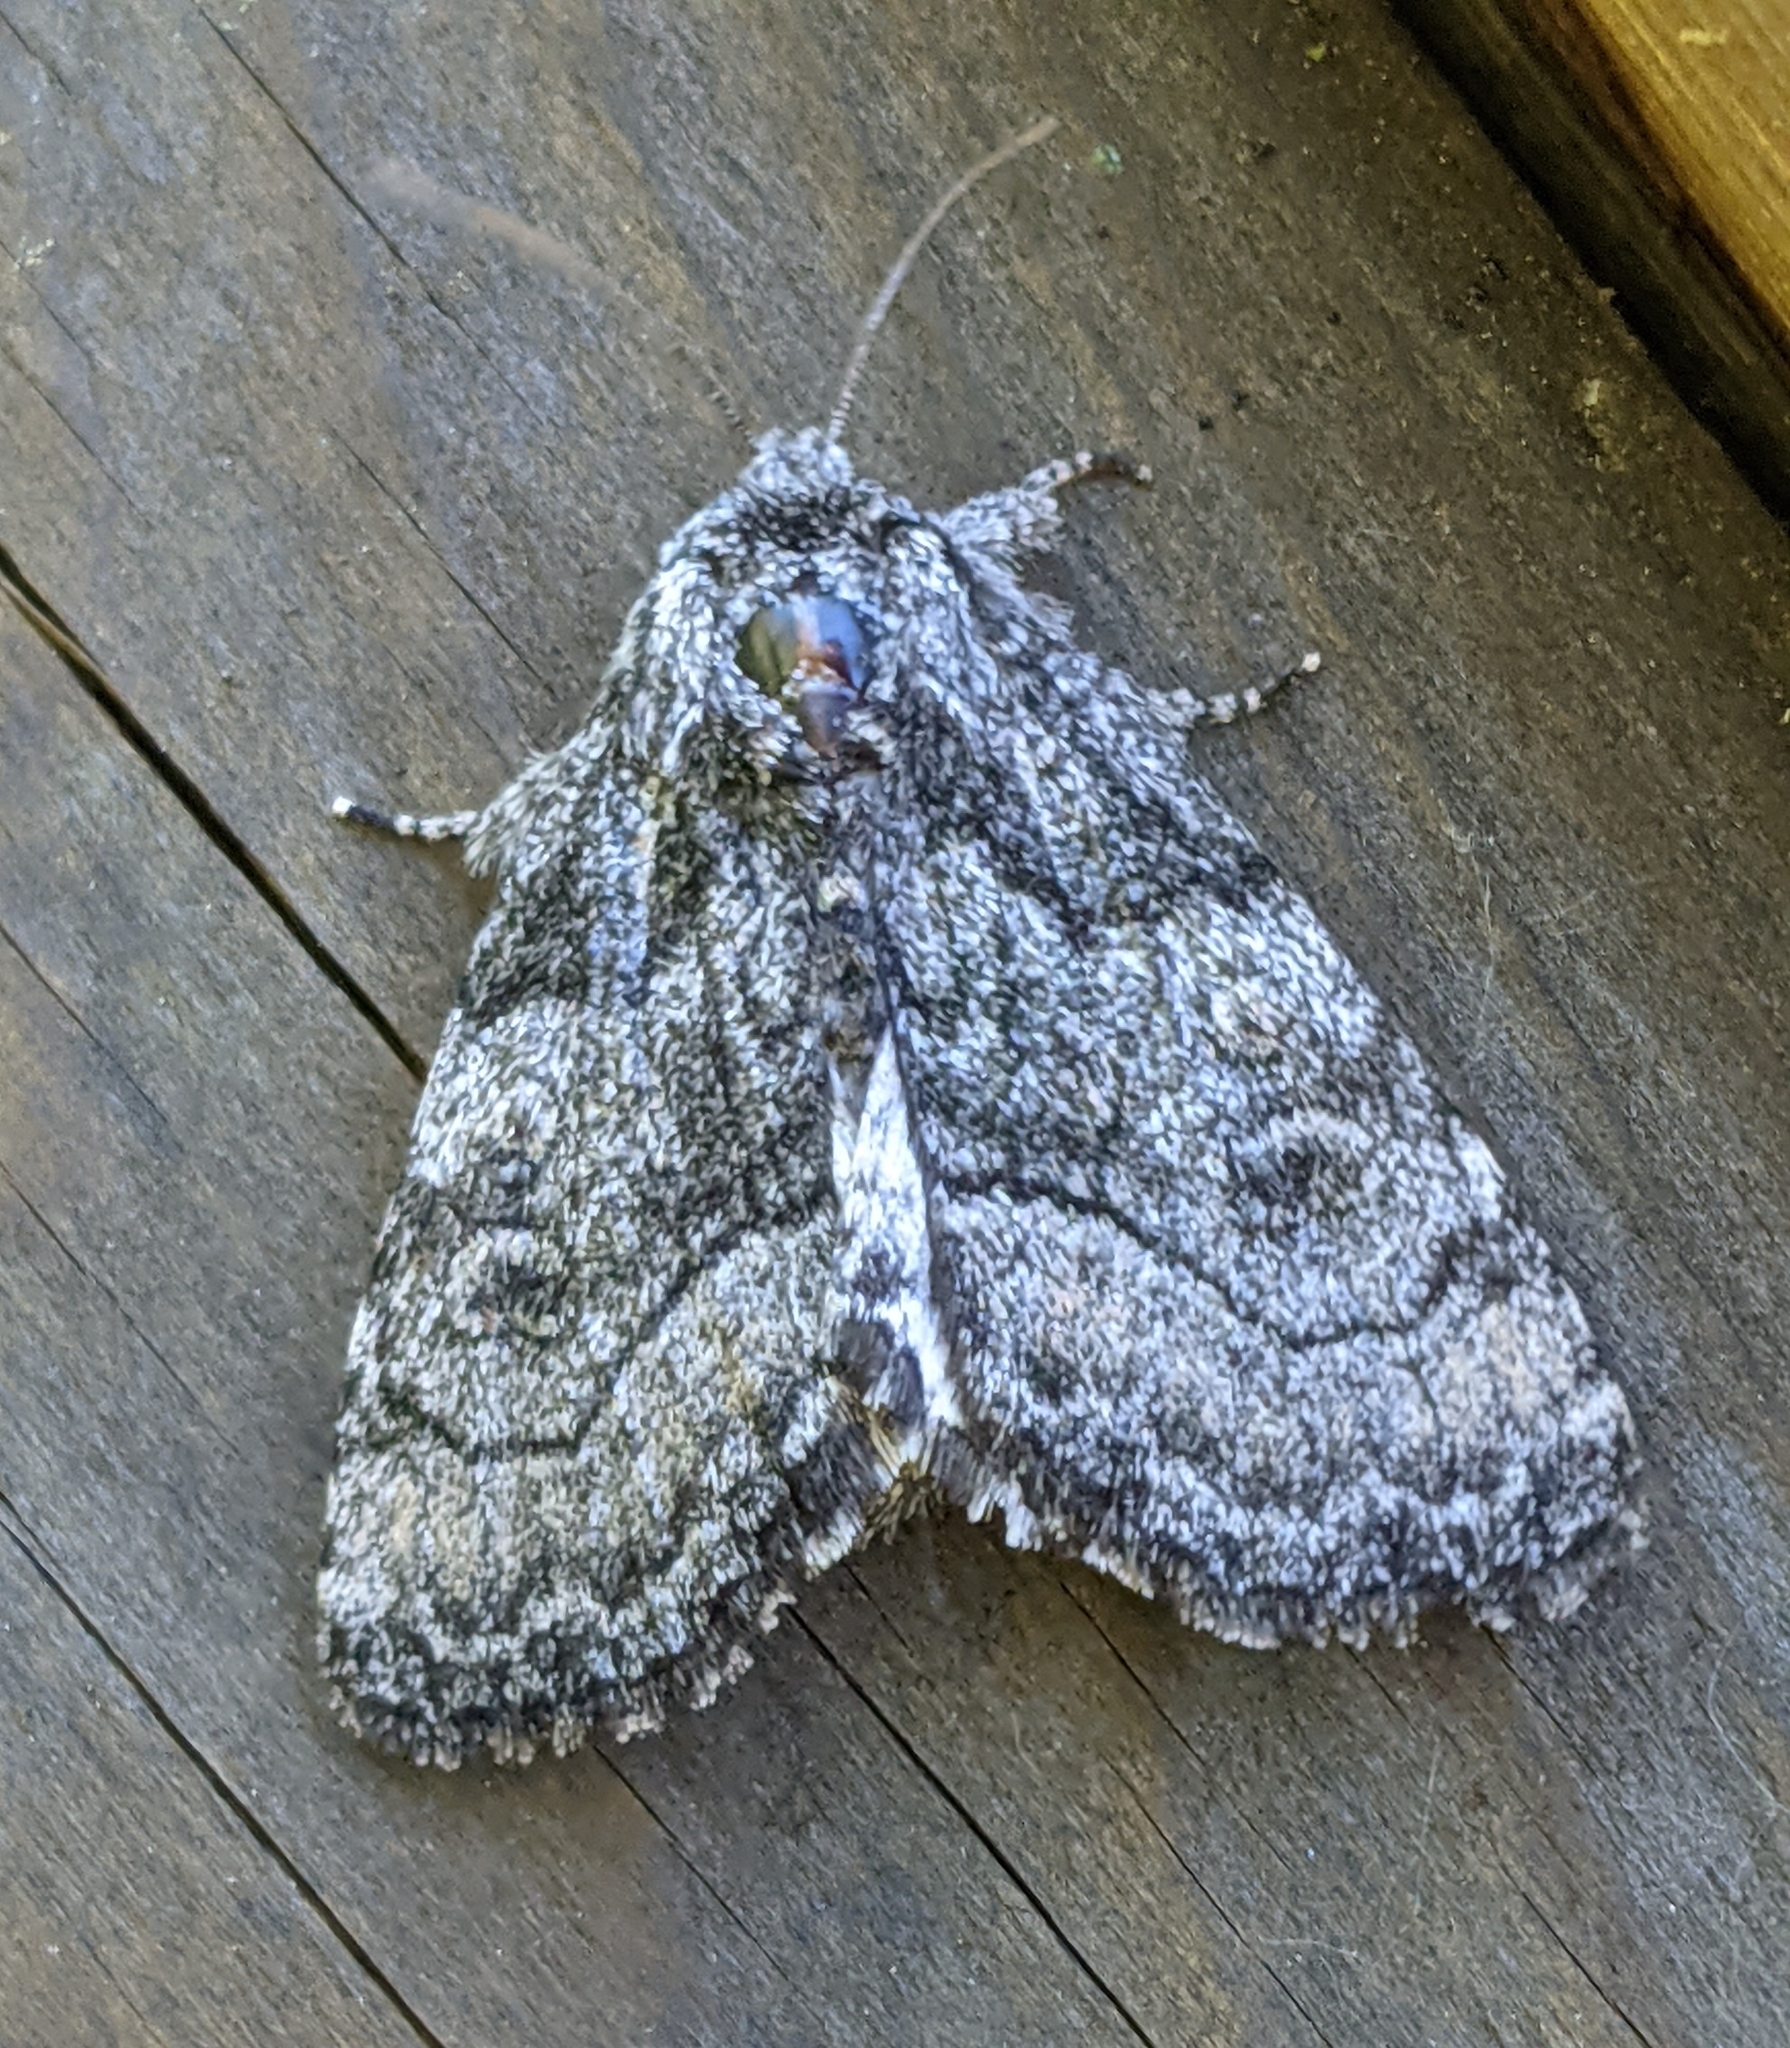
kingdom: Animalia
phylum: Arthropoda
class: Insecta
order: Lepidoptera
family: Noctuidae
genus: Raphia
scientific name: Raphia frater
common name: Brother
